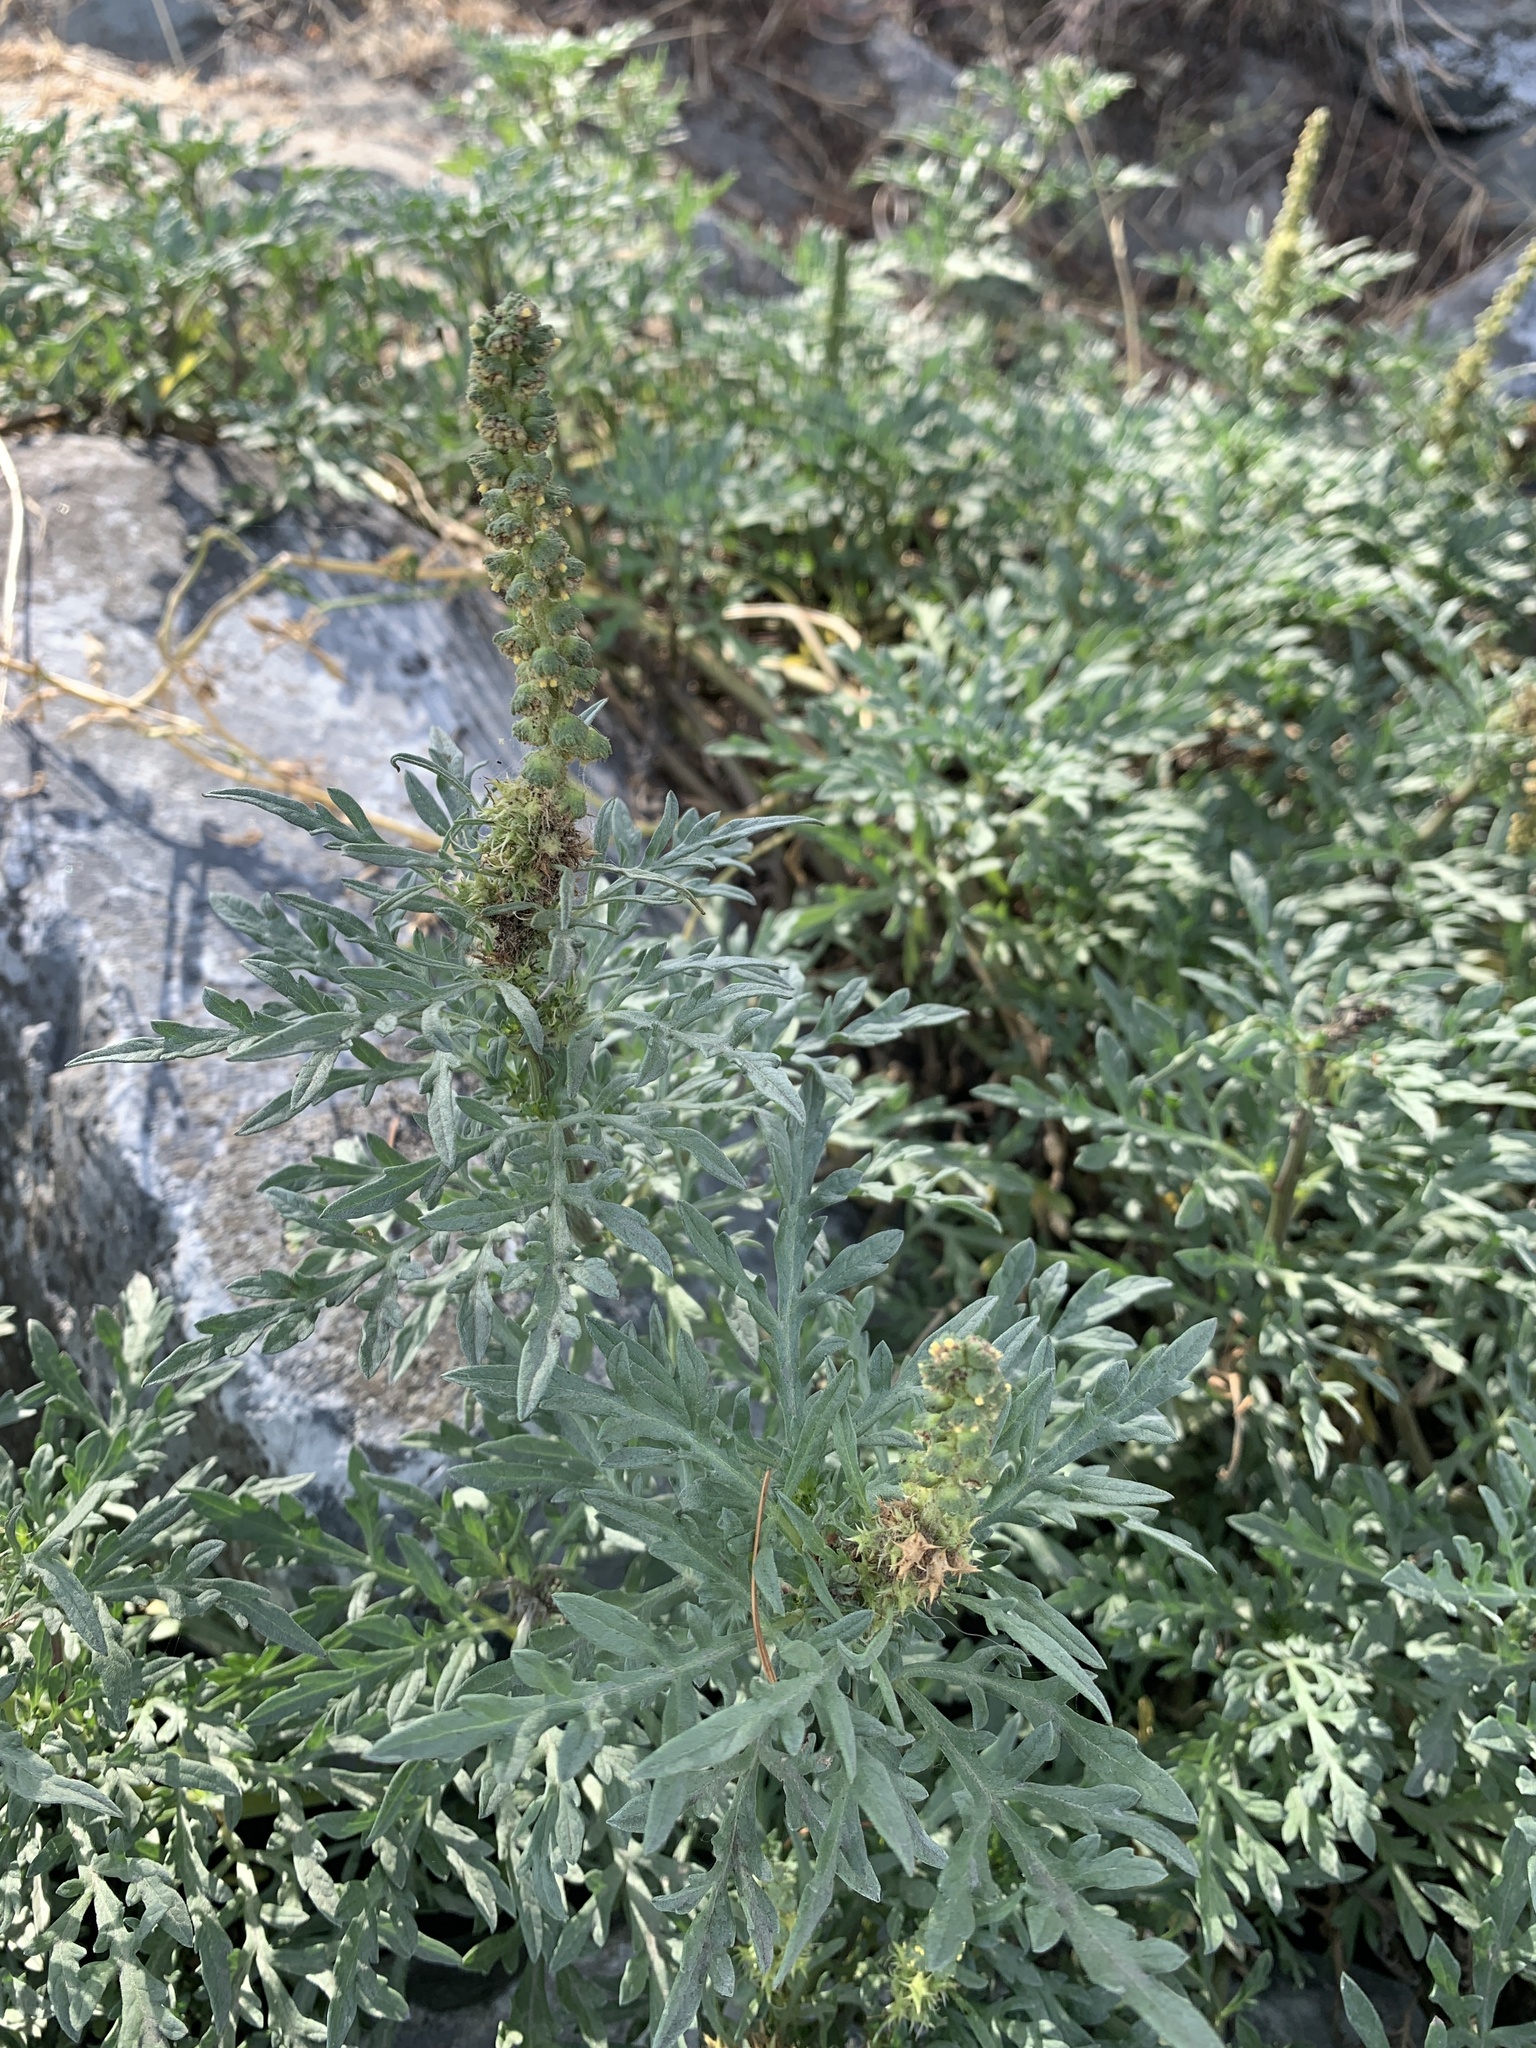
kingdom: Plantae
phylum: Tracheophyta
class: Magnoliopsida
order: Asterales
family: Asteraceae
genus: Ambrosia
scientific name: Ambrosia chamissonis
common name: Beachbur
